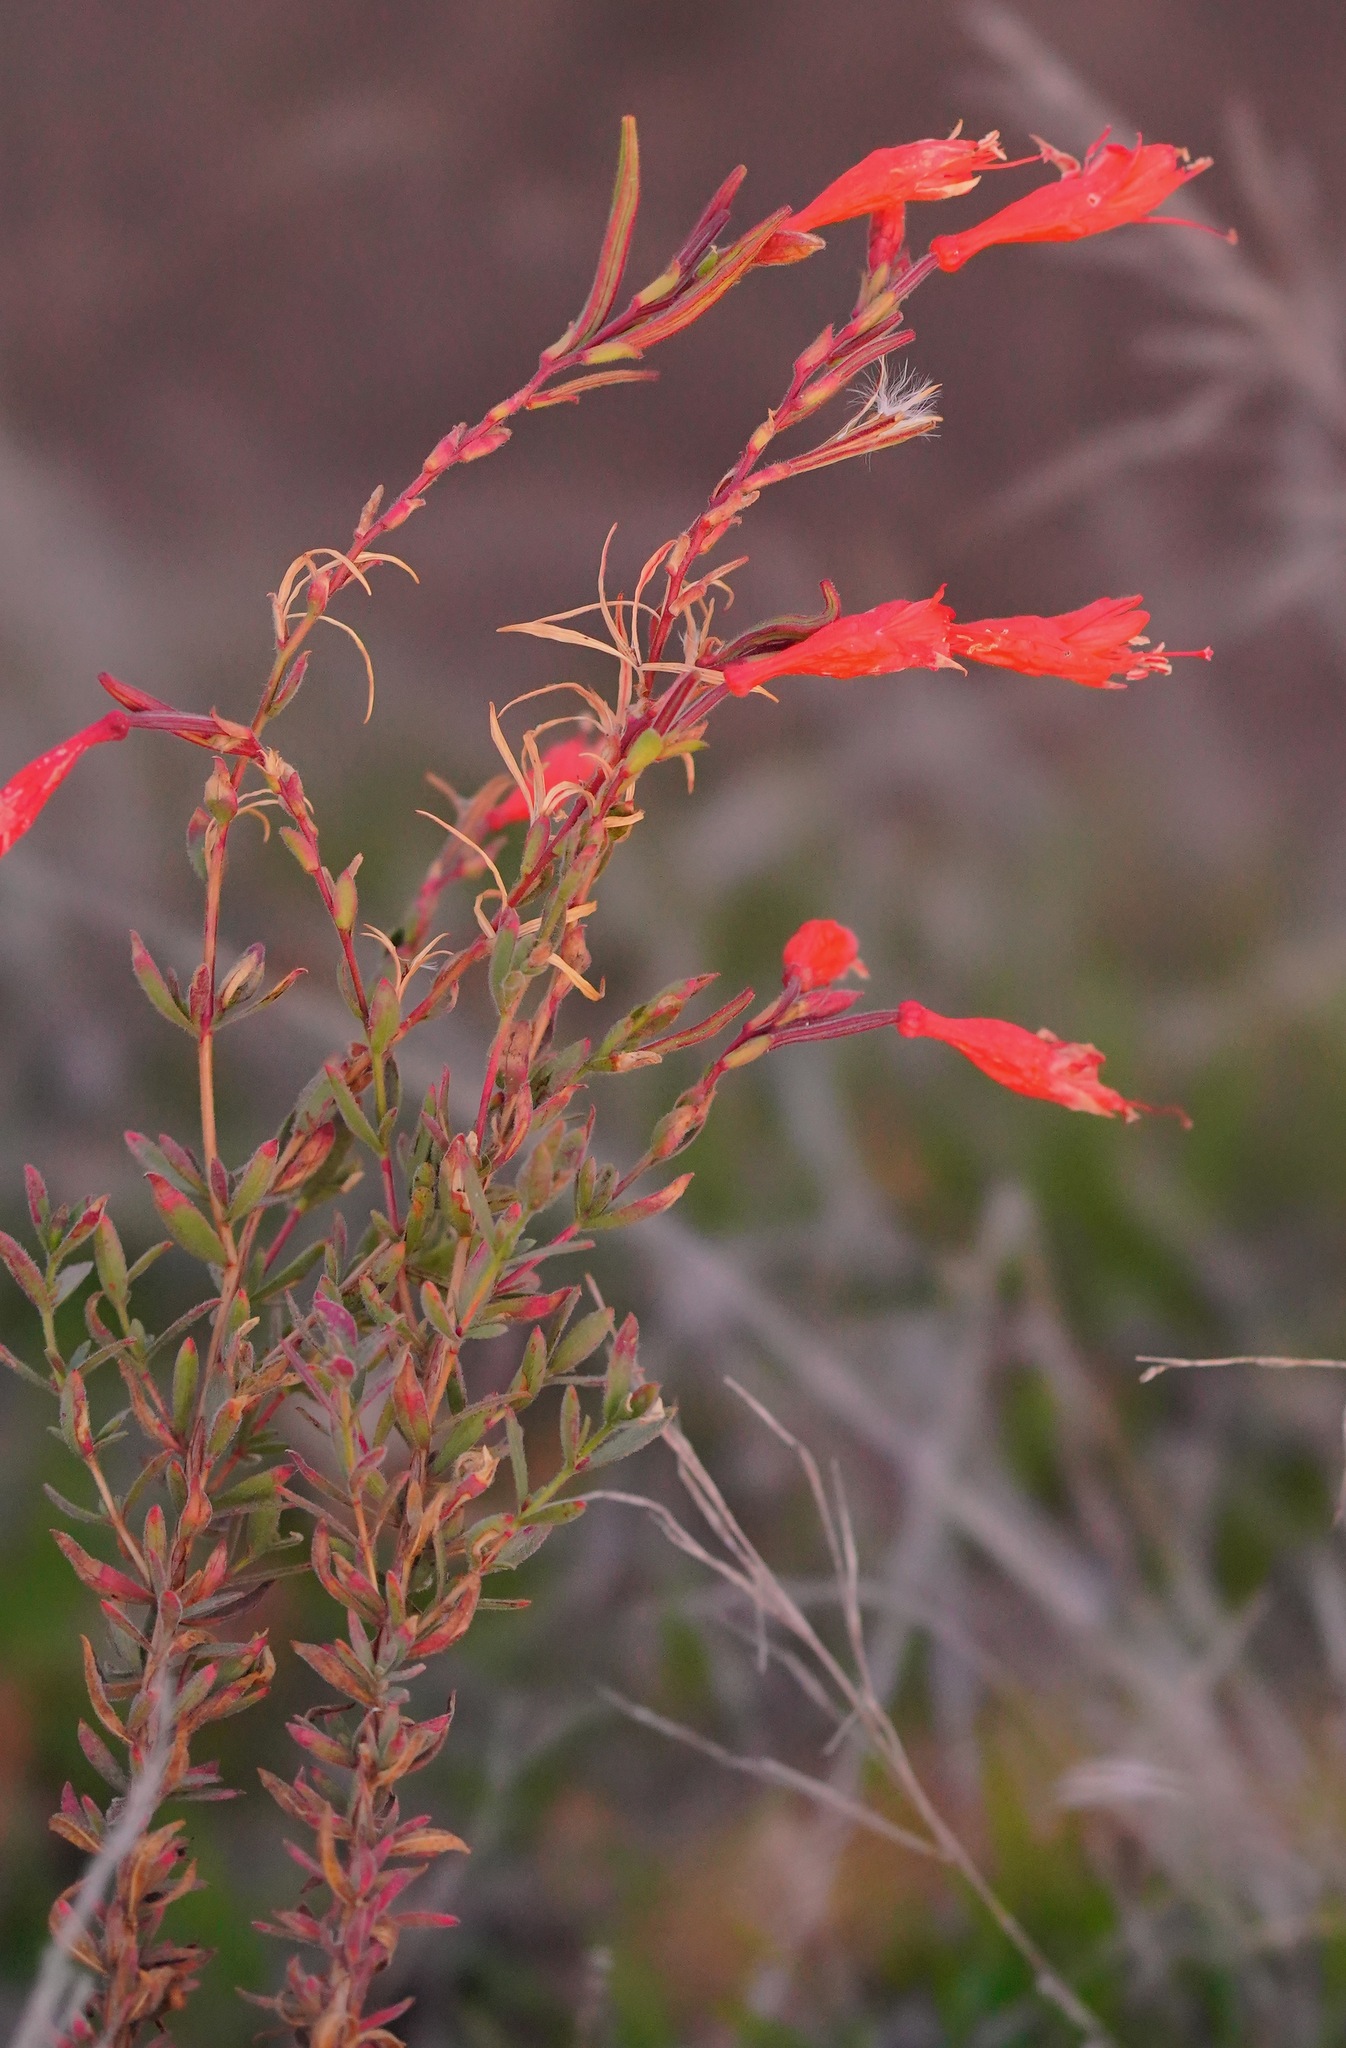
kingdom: Plantae
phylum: Tracheophyta
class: Magnoliopsida
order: Myrtales
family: Onagraceae
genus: Epilobium
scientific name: Epilobium canum
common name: California-fuchsia
